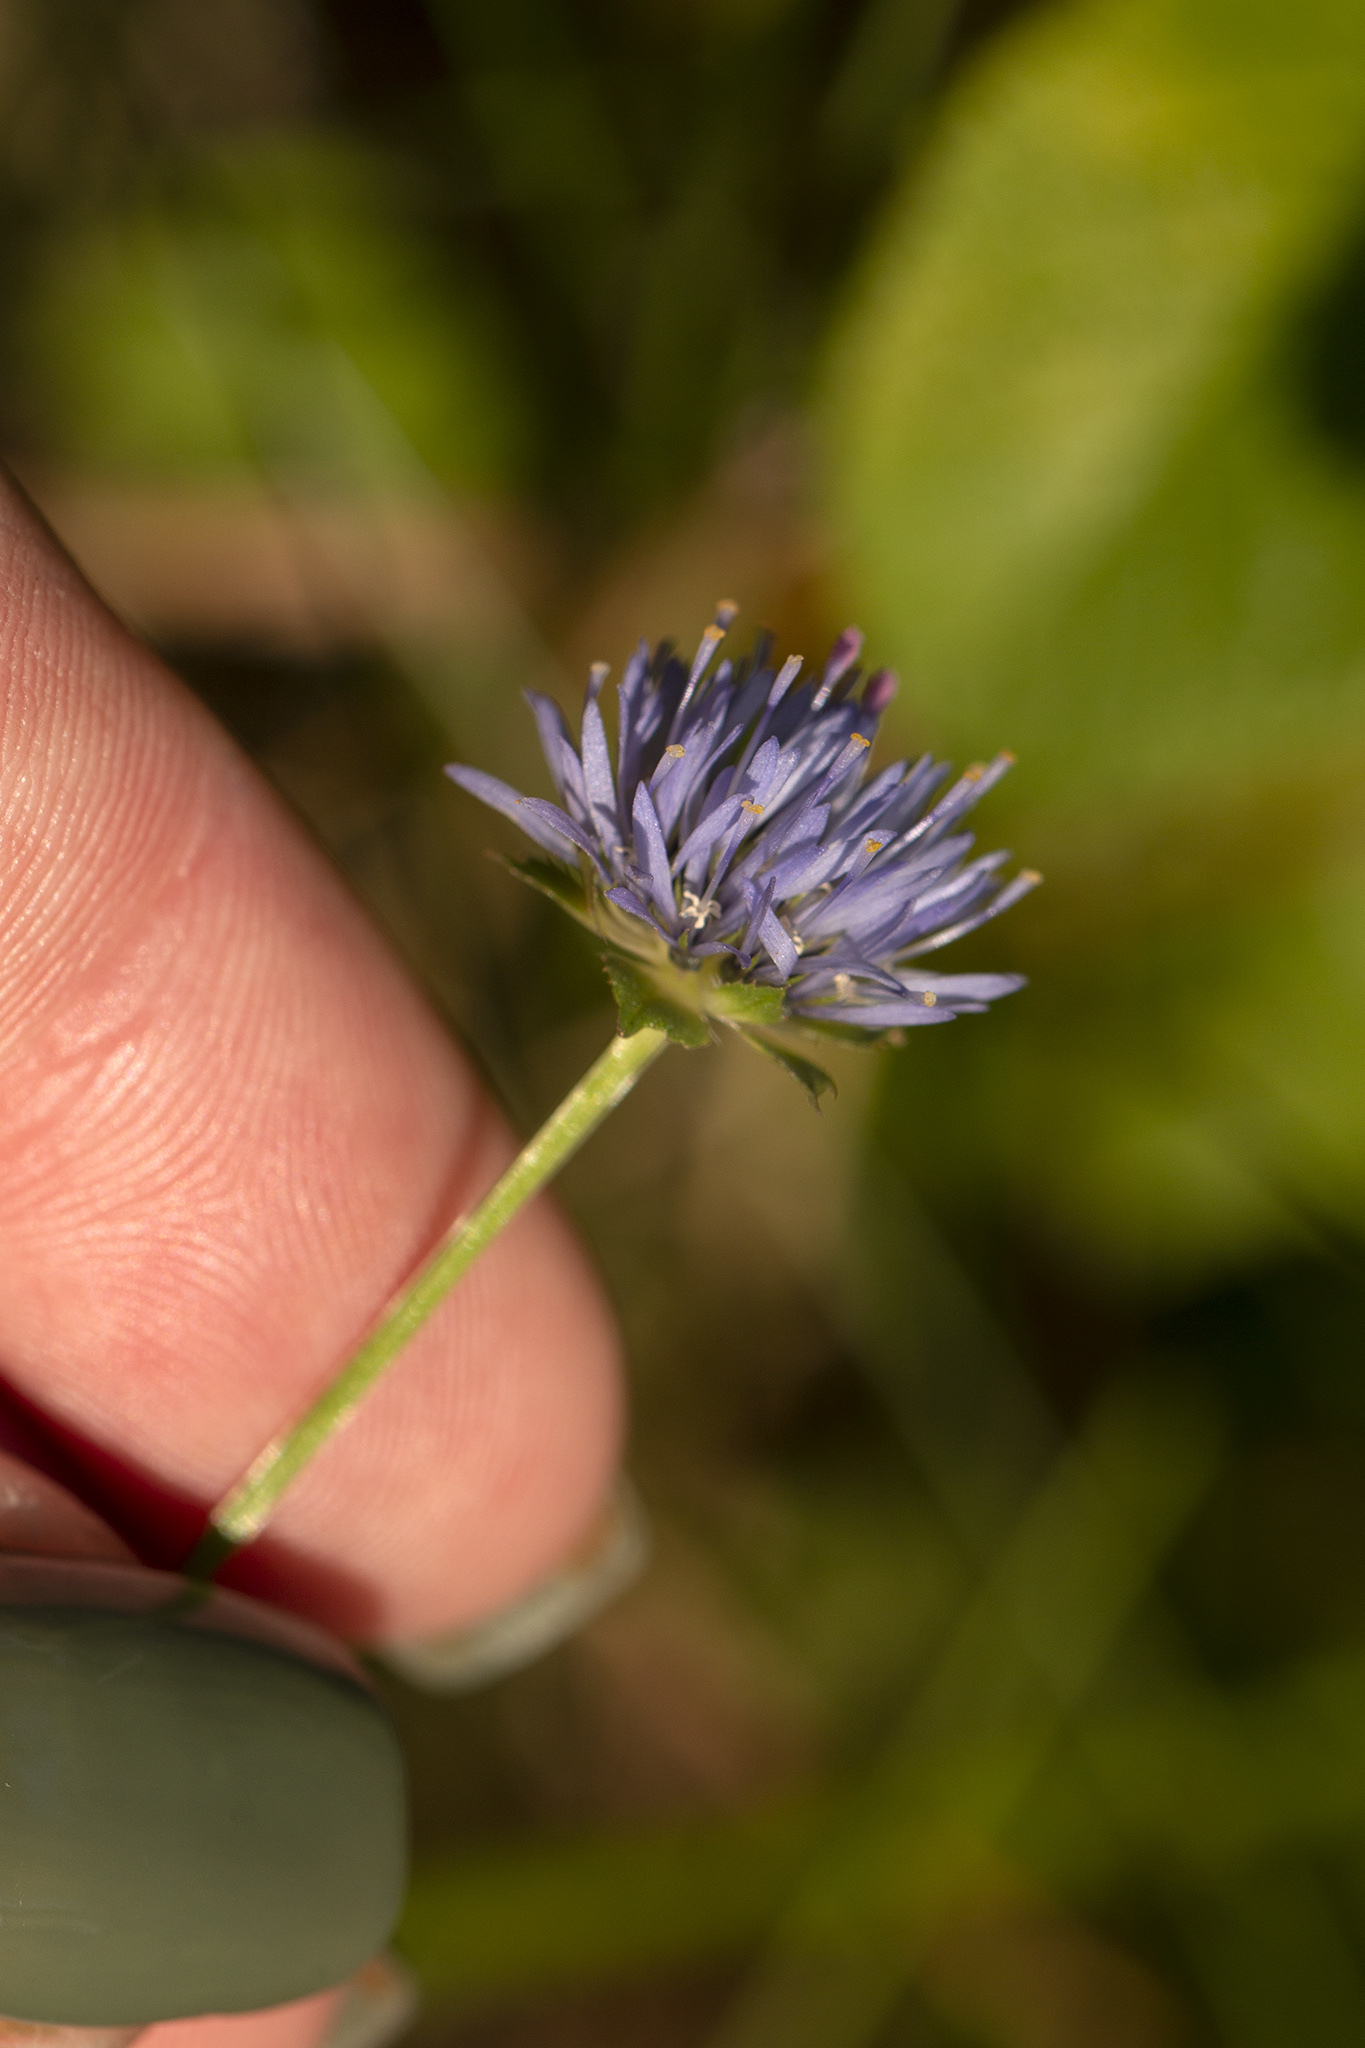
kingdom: Plantae
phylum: Tracheophyta
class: Magnoliopsida
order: Asterales
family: Campanulaceae
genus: Jasione
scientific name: Jasione montana
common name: Sheep's-bit
